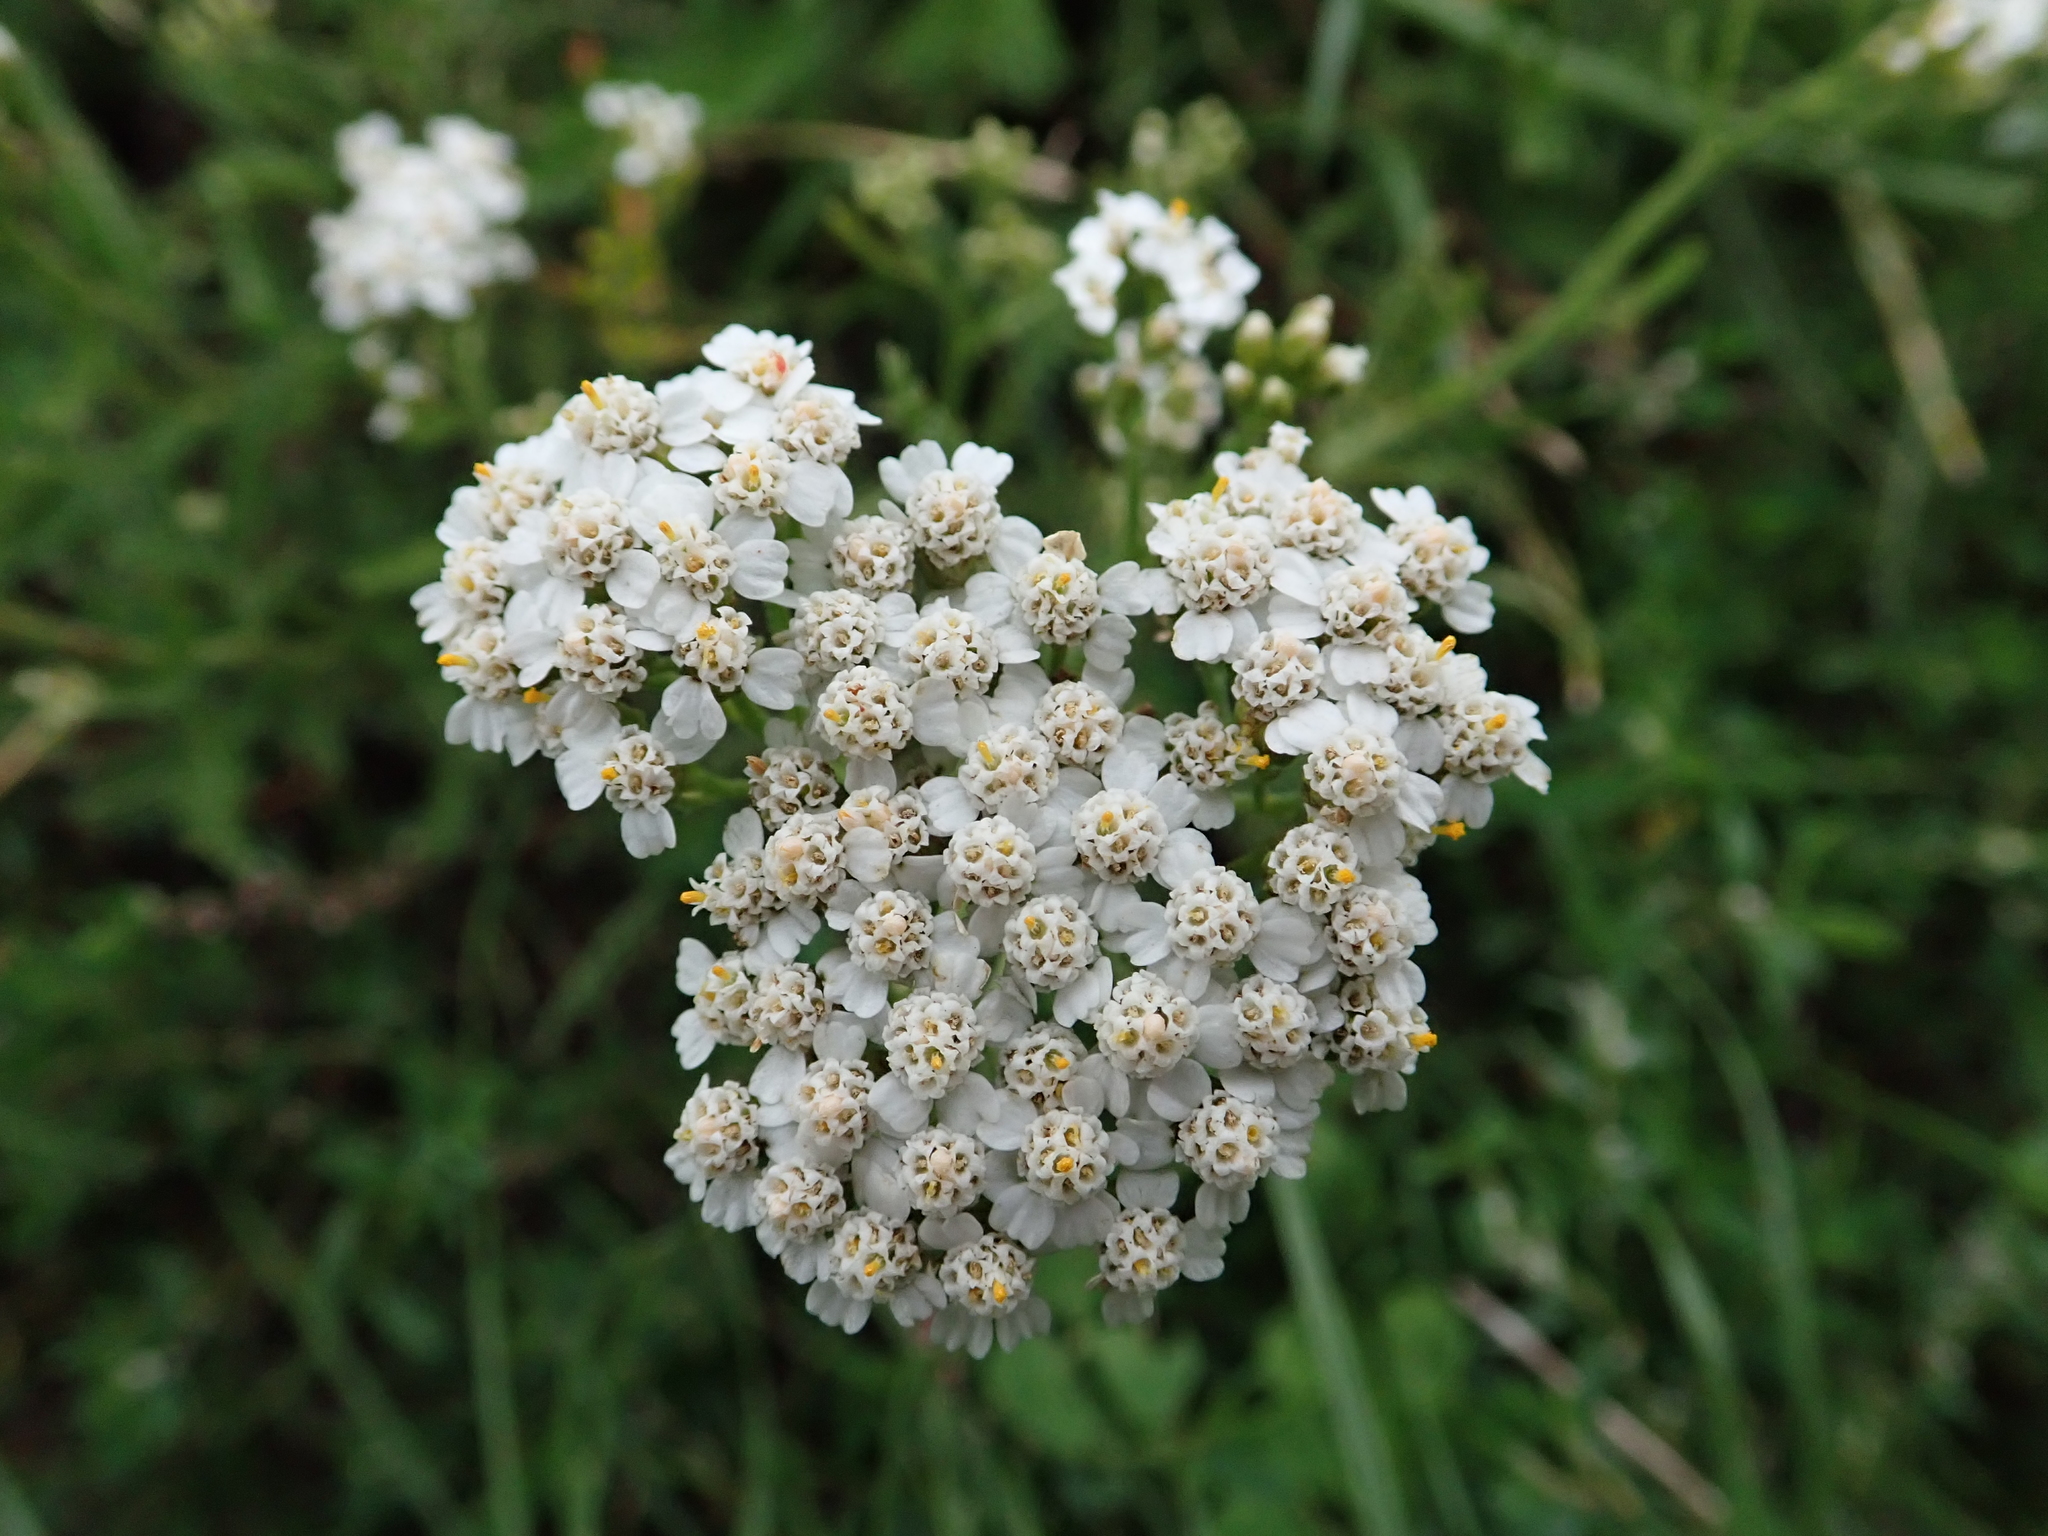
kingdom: Plantae
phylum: Tracheophyta
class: Magnoliopsida
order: Asterales
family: Asteraceae
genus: Achillea
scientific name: Achillea millefolium
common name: Yarrow
